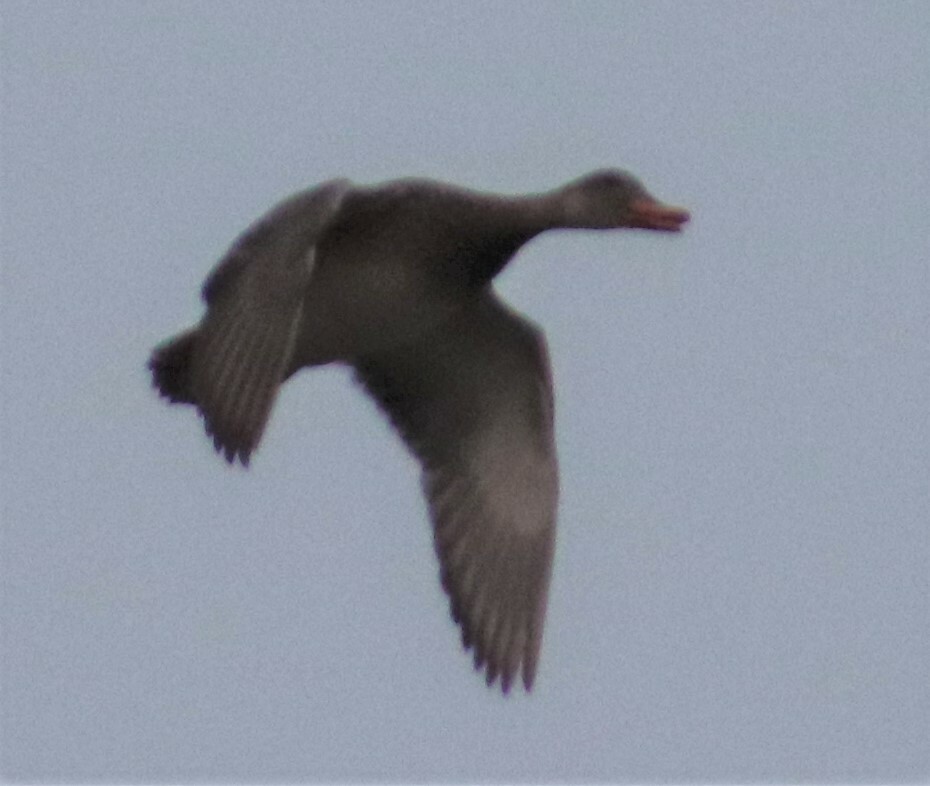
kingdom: Animalia
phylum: Chordata
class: Aves
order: Anseriformes
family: Anatidae
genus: Mareca
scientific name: Mareca strepera
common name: Gadwall
